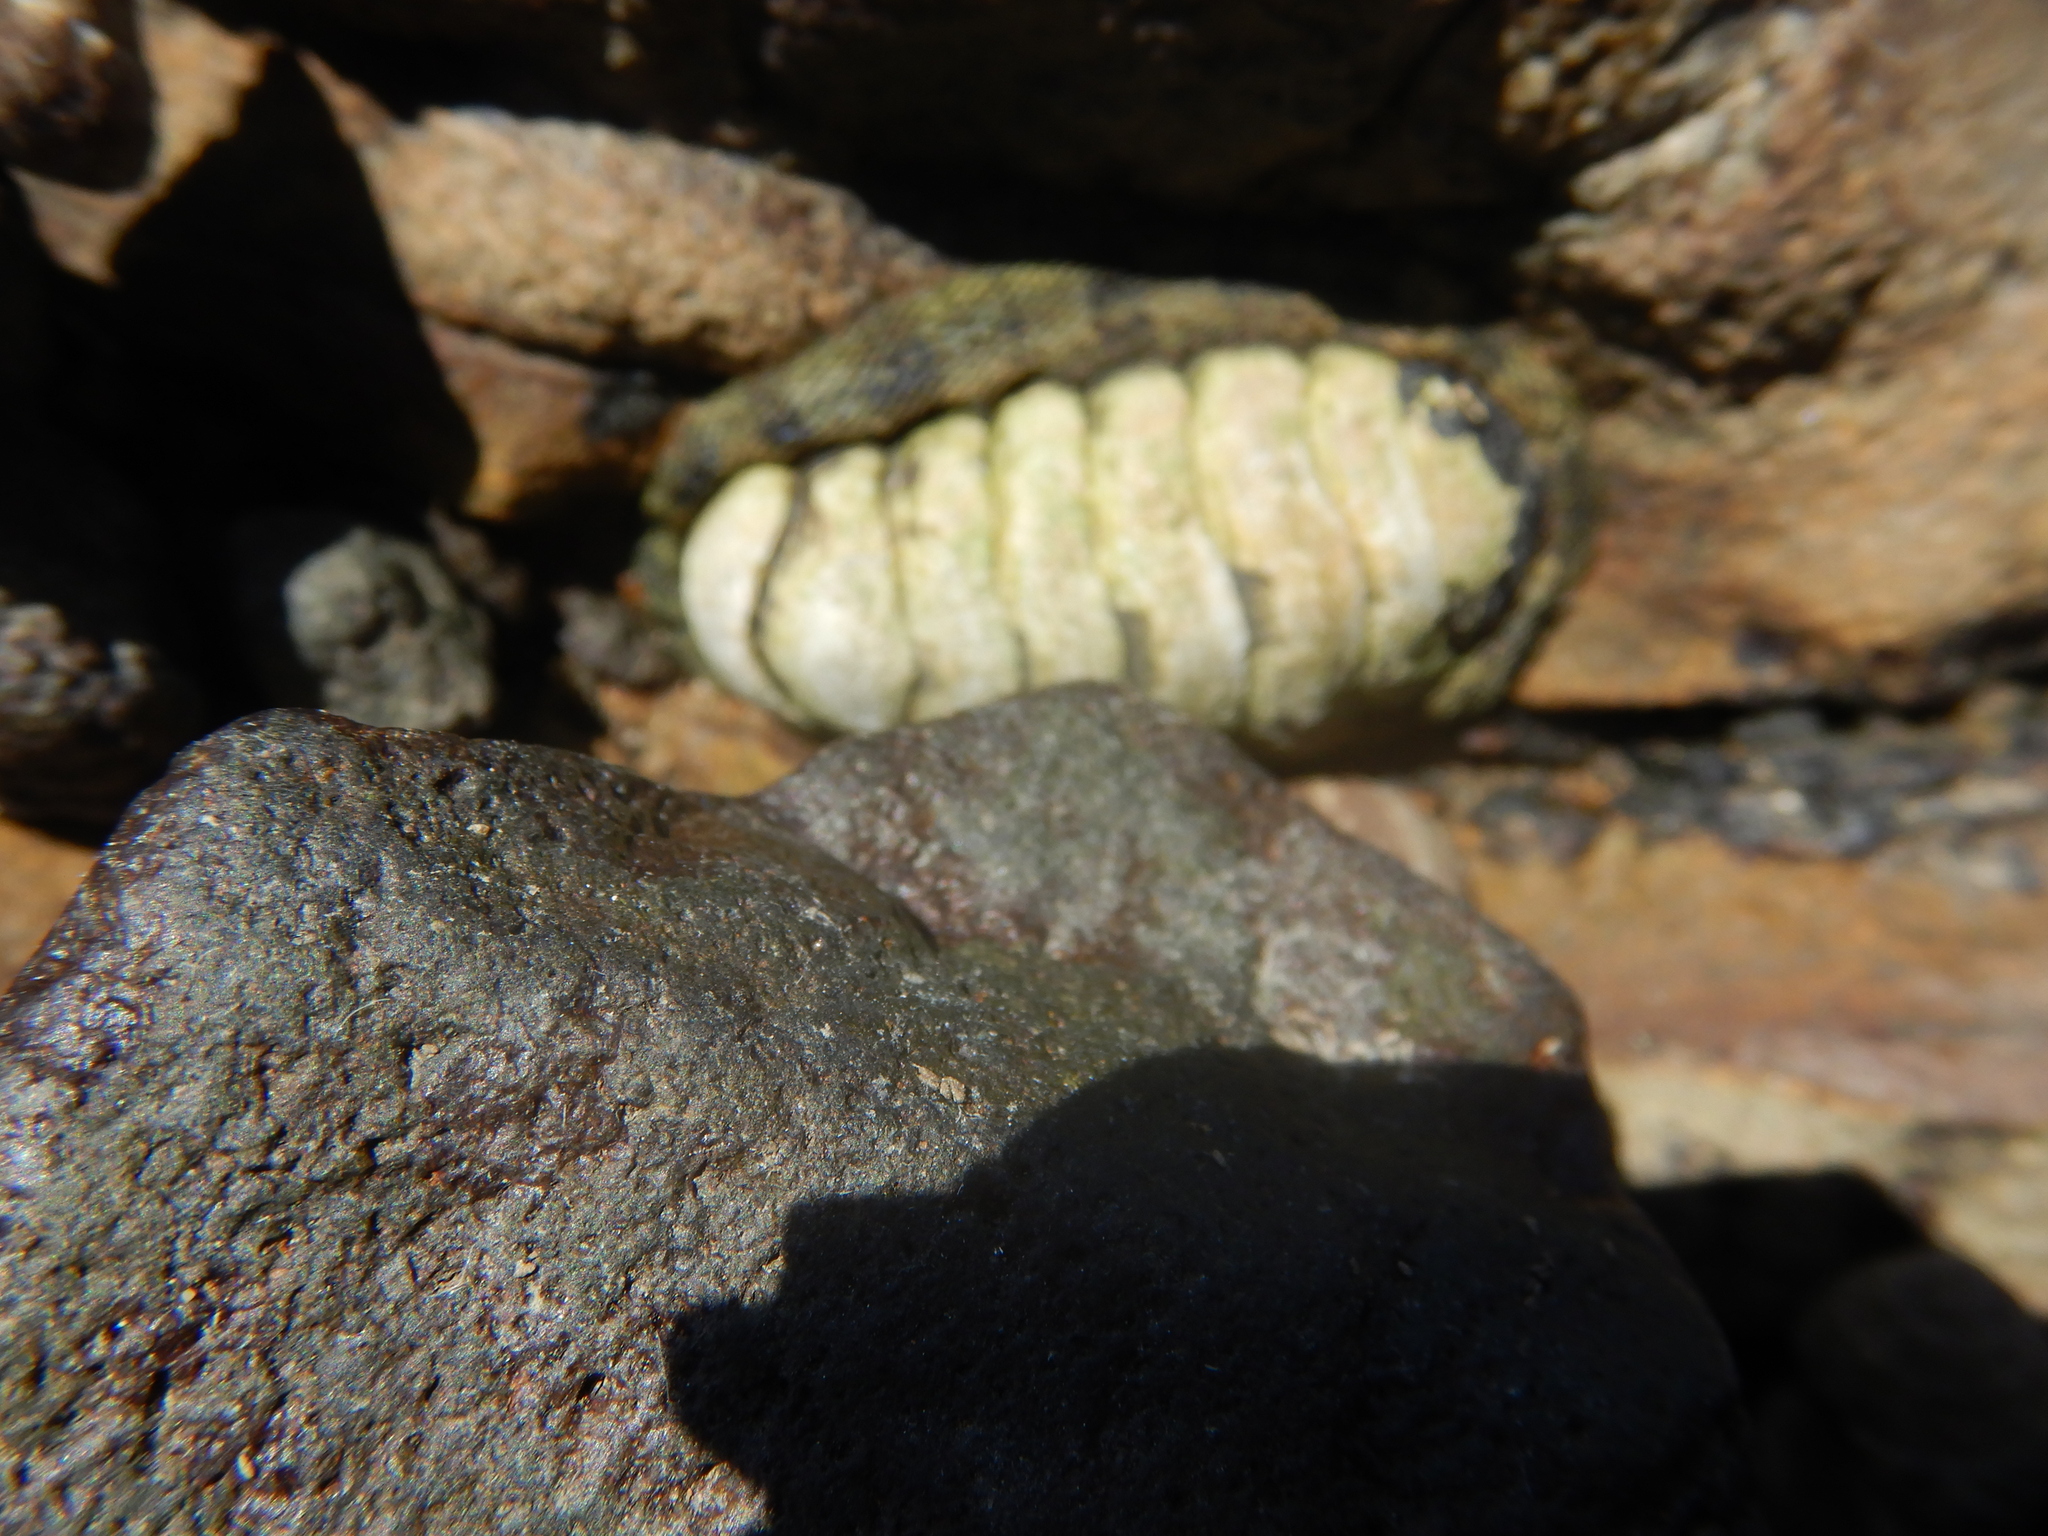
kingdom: Animalia
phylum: Mollusca
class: Polyplacophora
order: Chitonida
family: Chitonidae
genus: Sypharochiton
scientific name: Sypharochiton pelliserpentis
